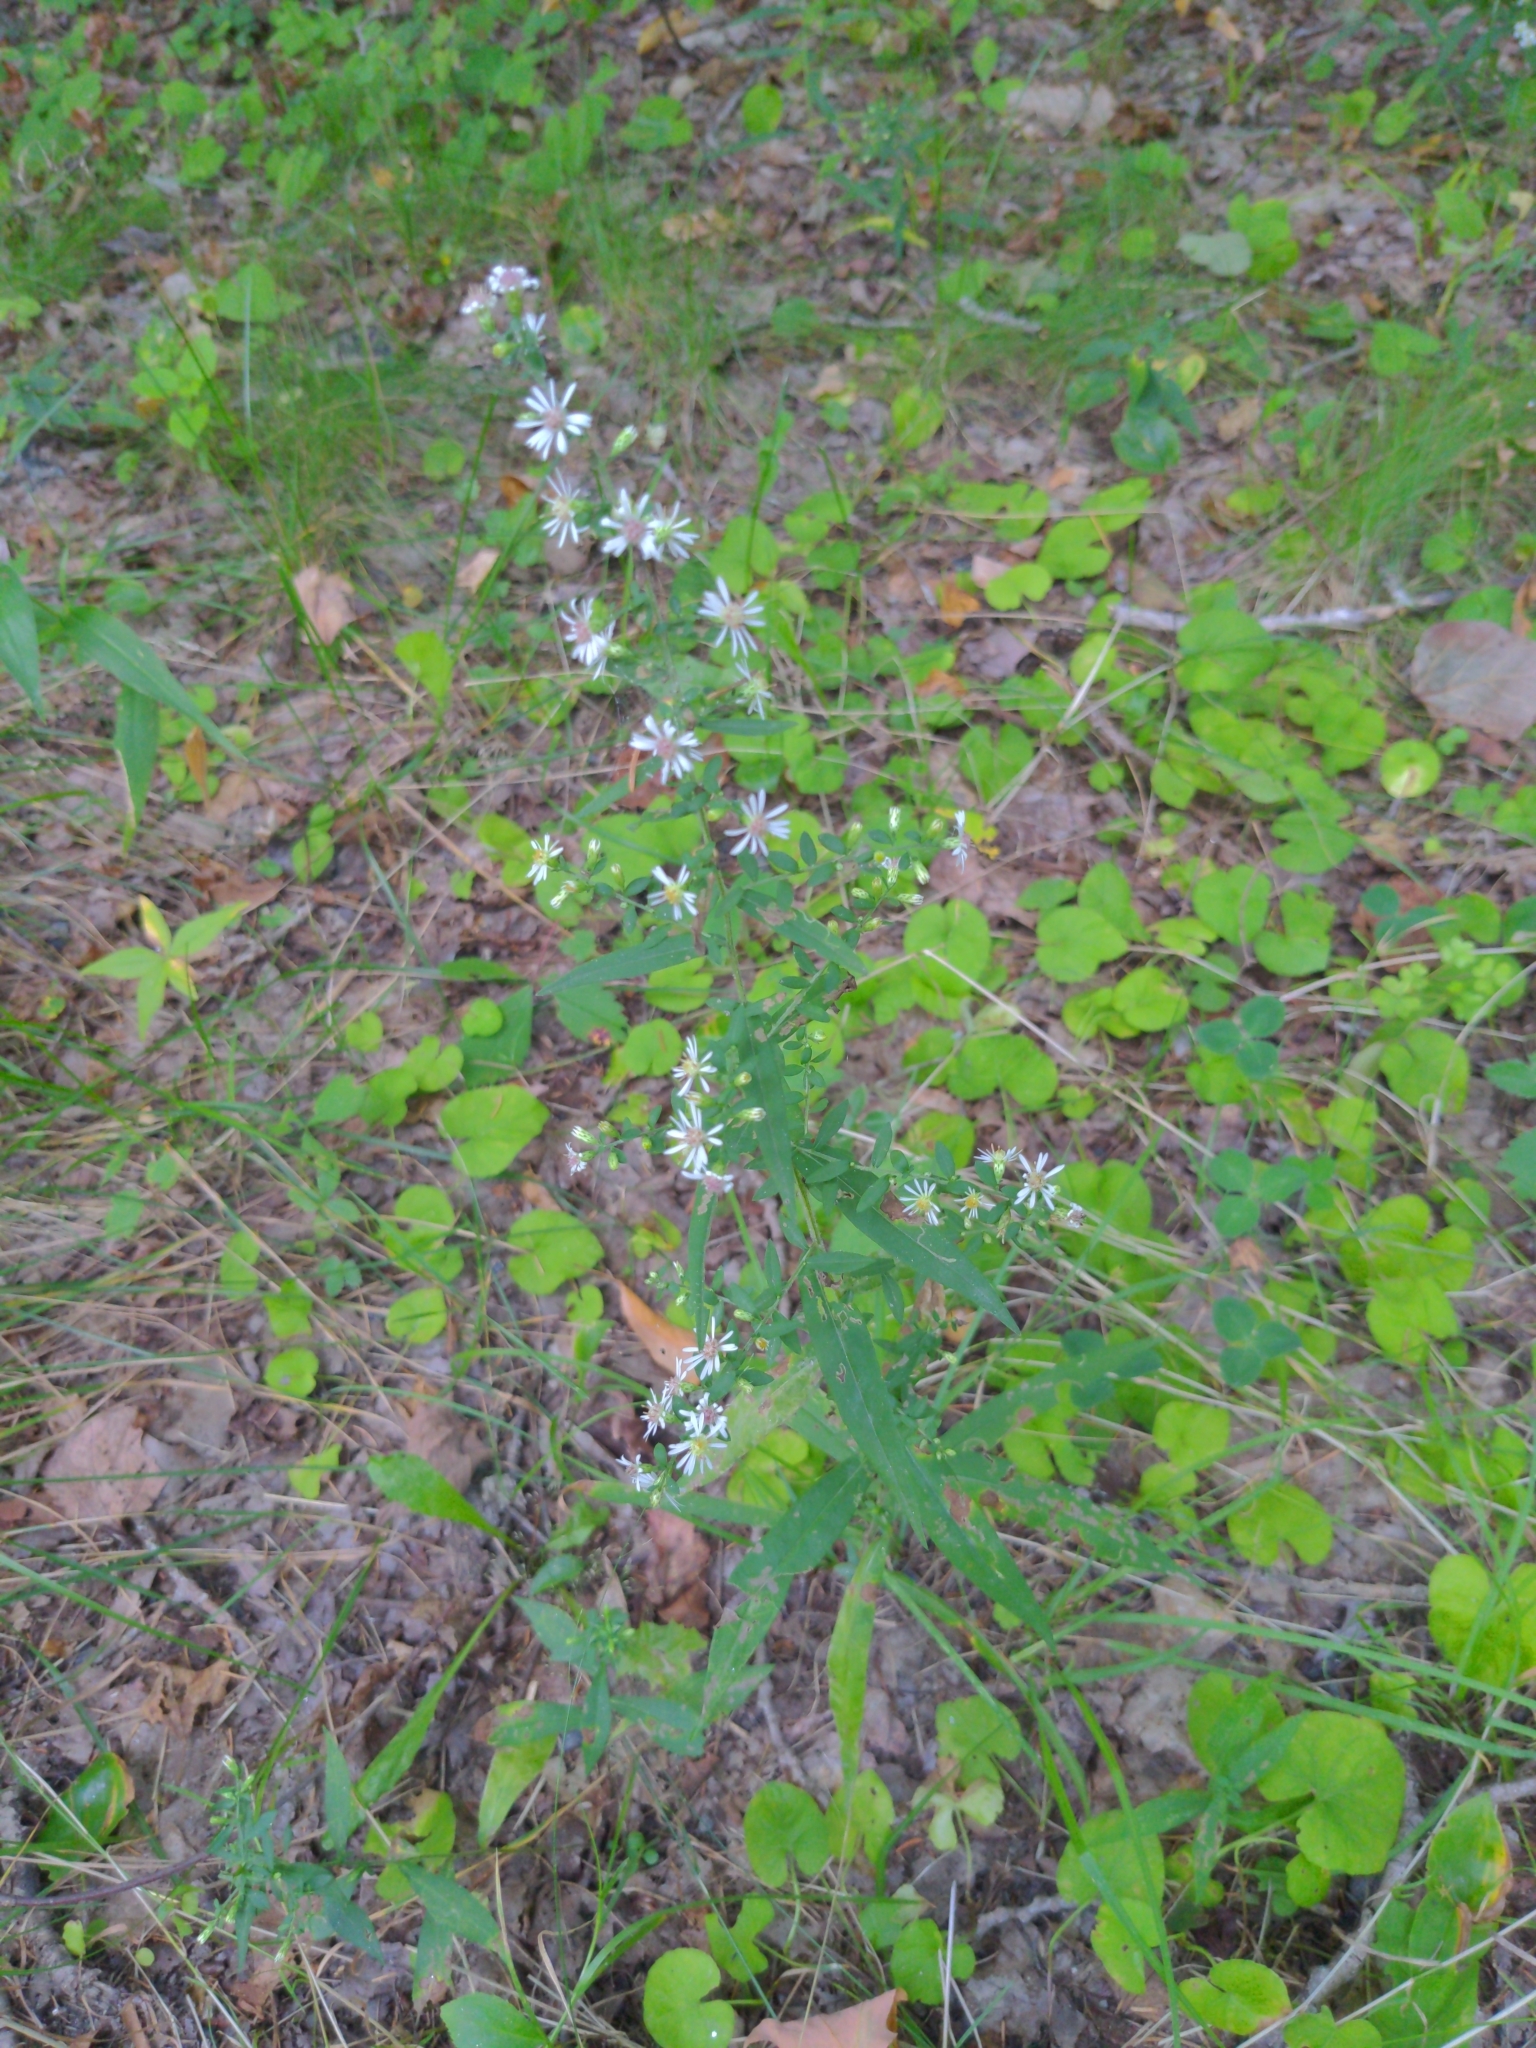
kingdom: Plantae
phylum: Tracheophyta
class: Magnoliopsida
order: Asterales
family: Asteraceae
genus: Symphyotrichum
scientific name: Symphyotrichum lateriflorum
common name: Calico aster
